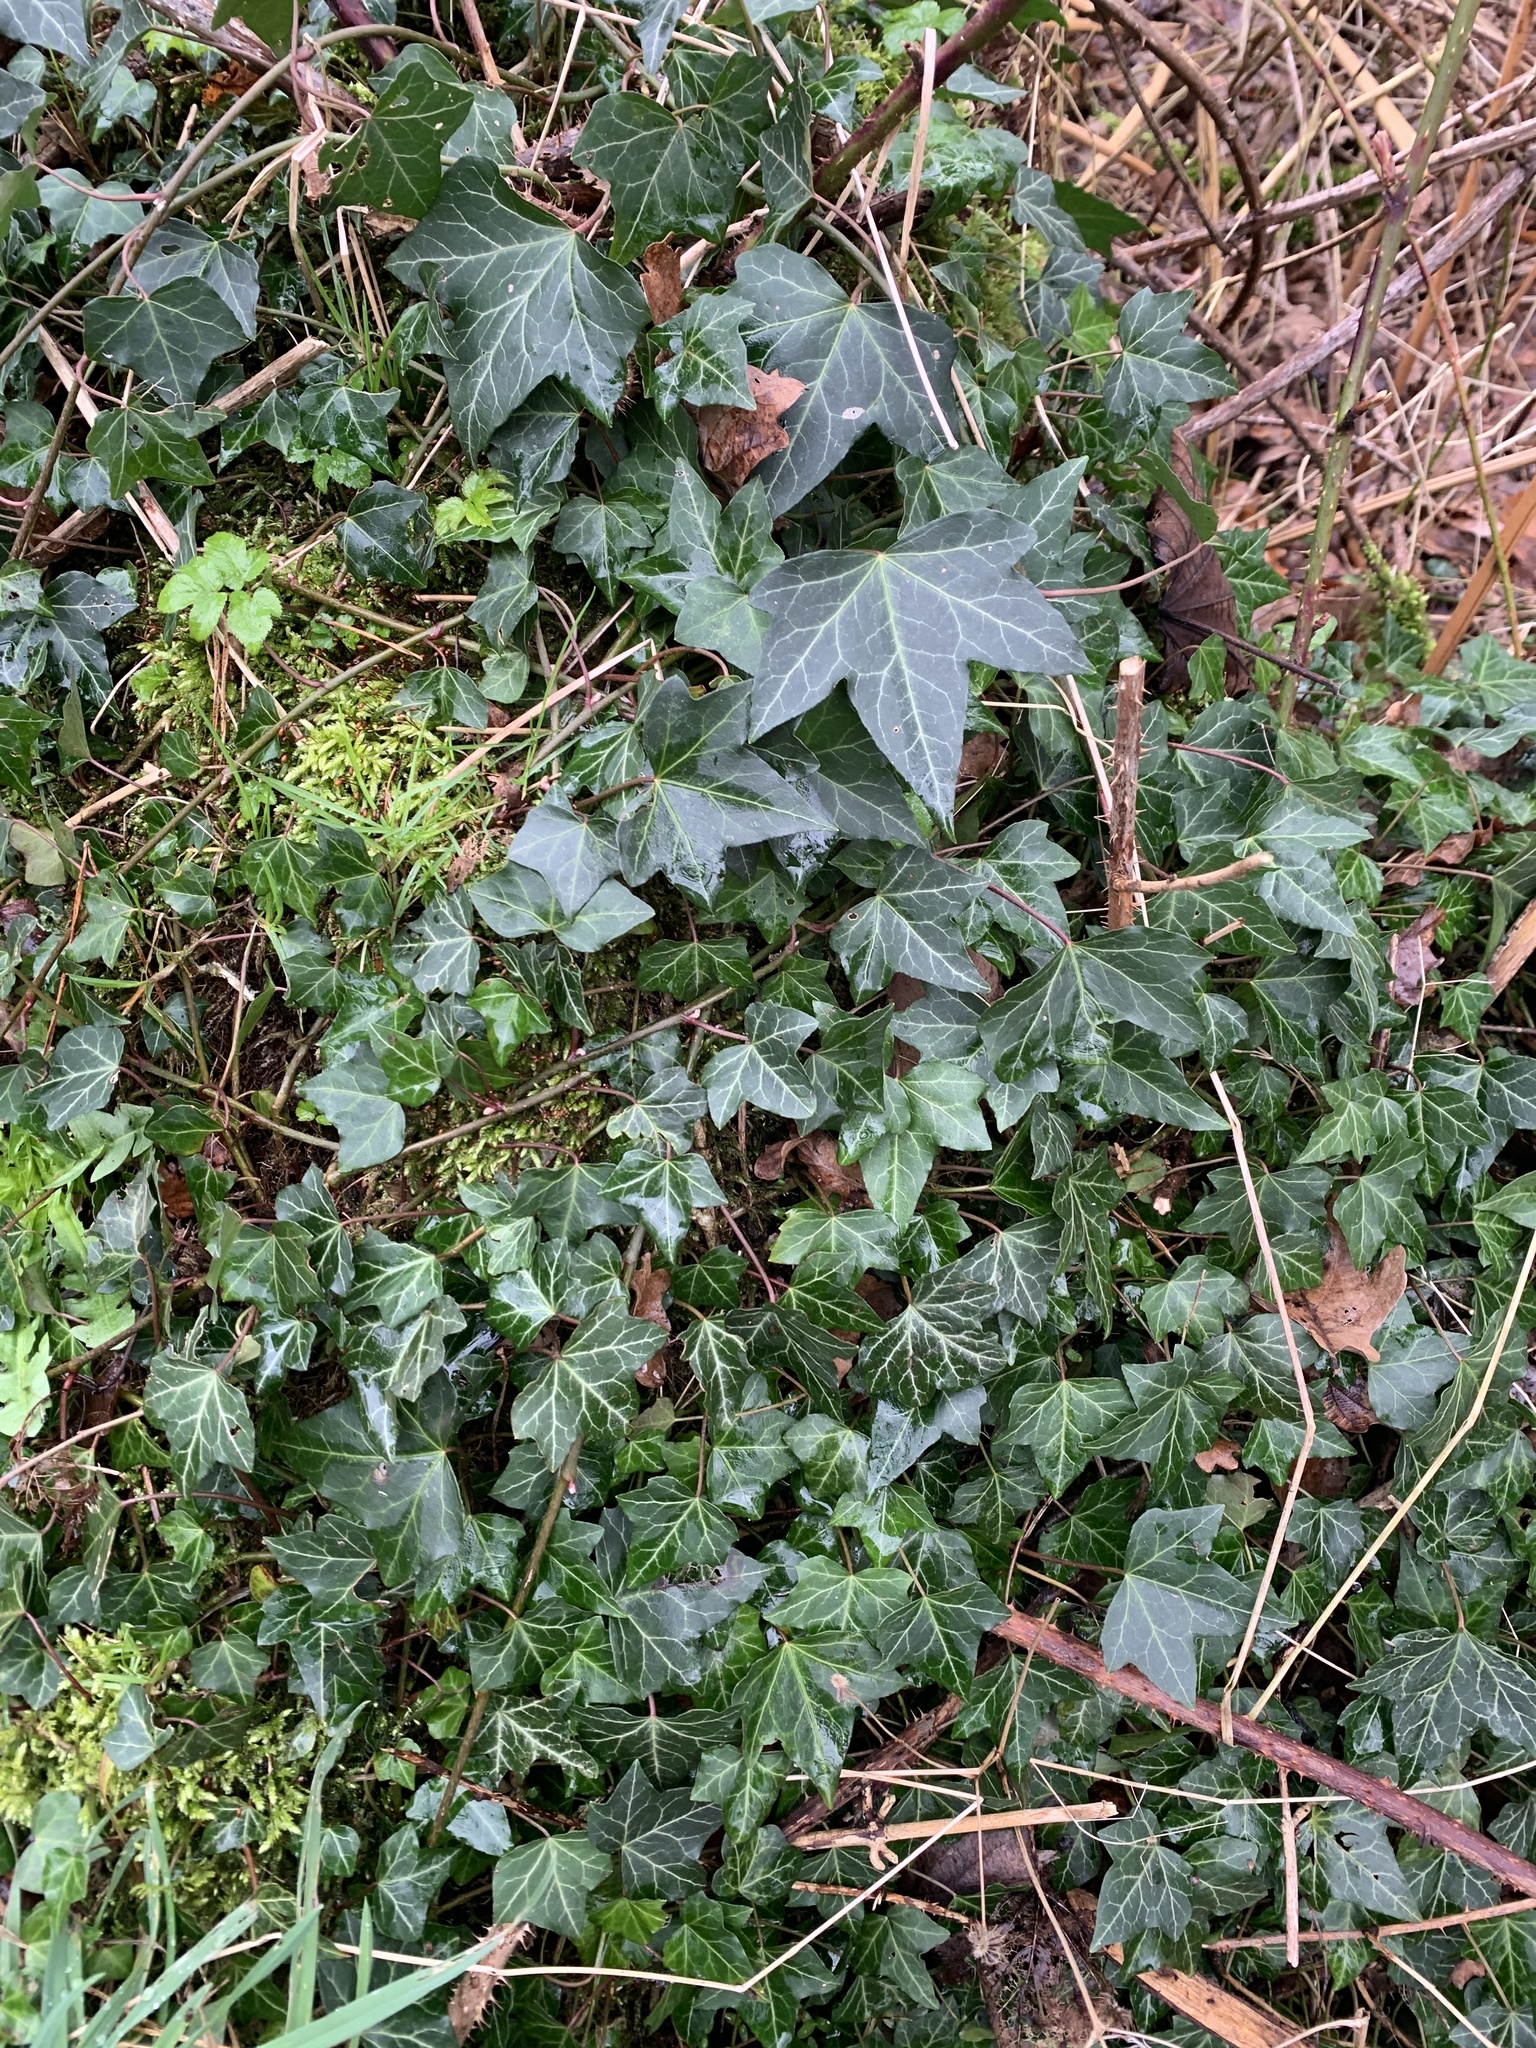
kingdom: Plantae
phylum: Tracheophyta
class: Magnoliopsida
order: Apiales
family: Araliaceae
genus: Hedera
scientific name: Hedera helix
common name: Ivy
